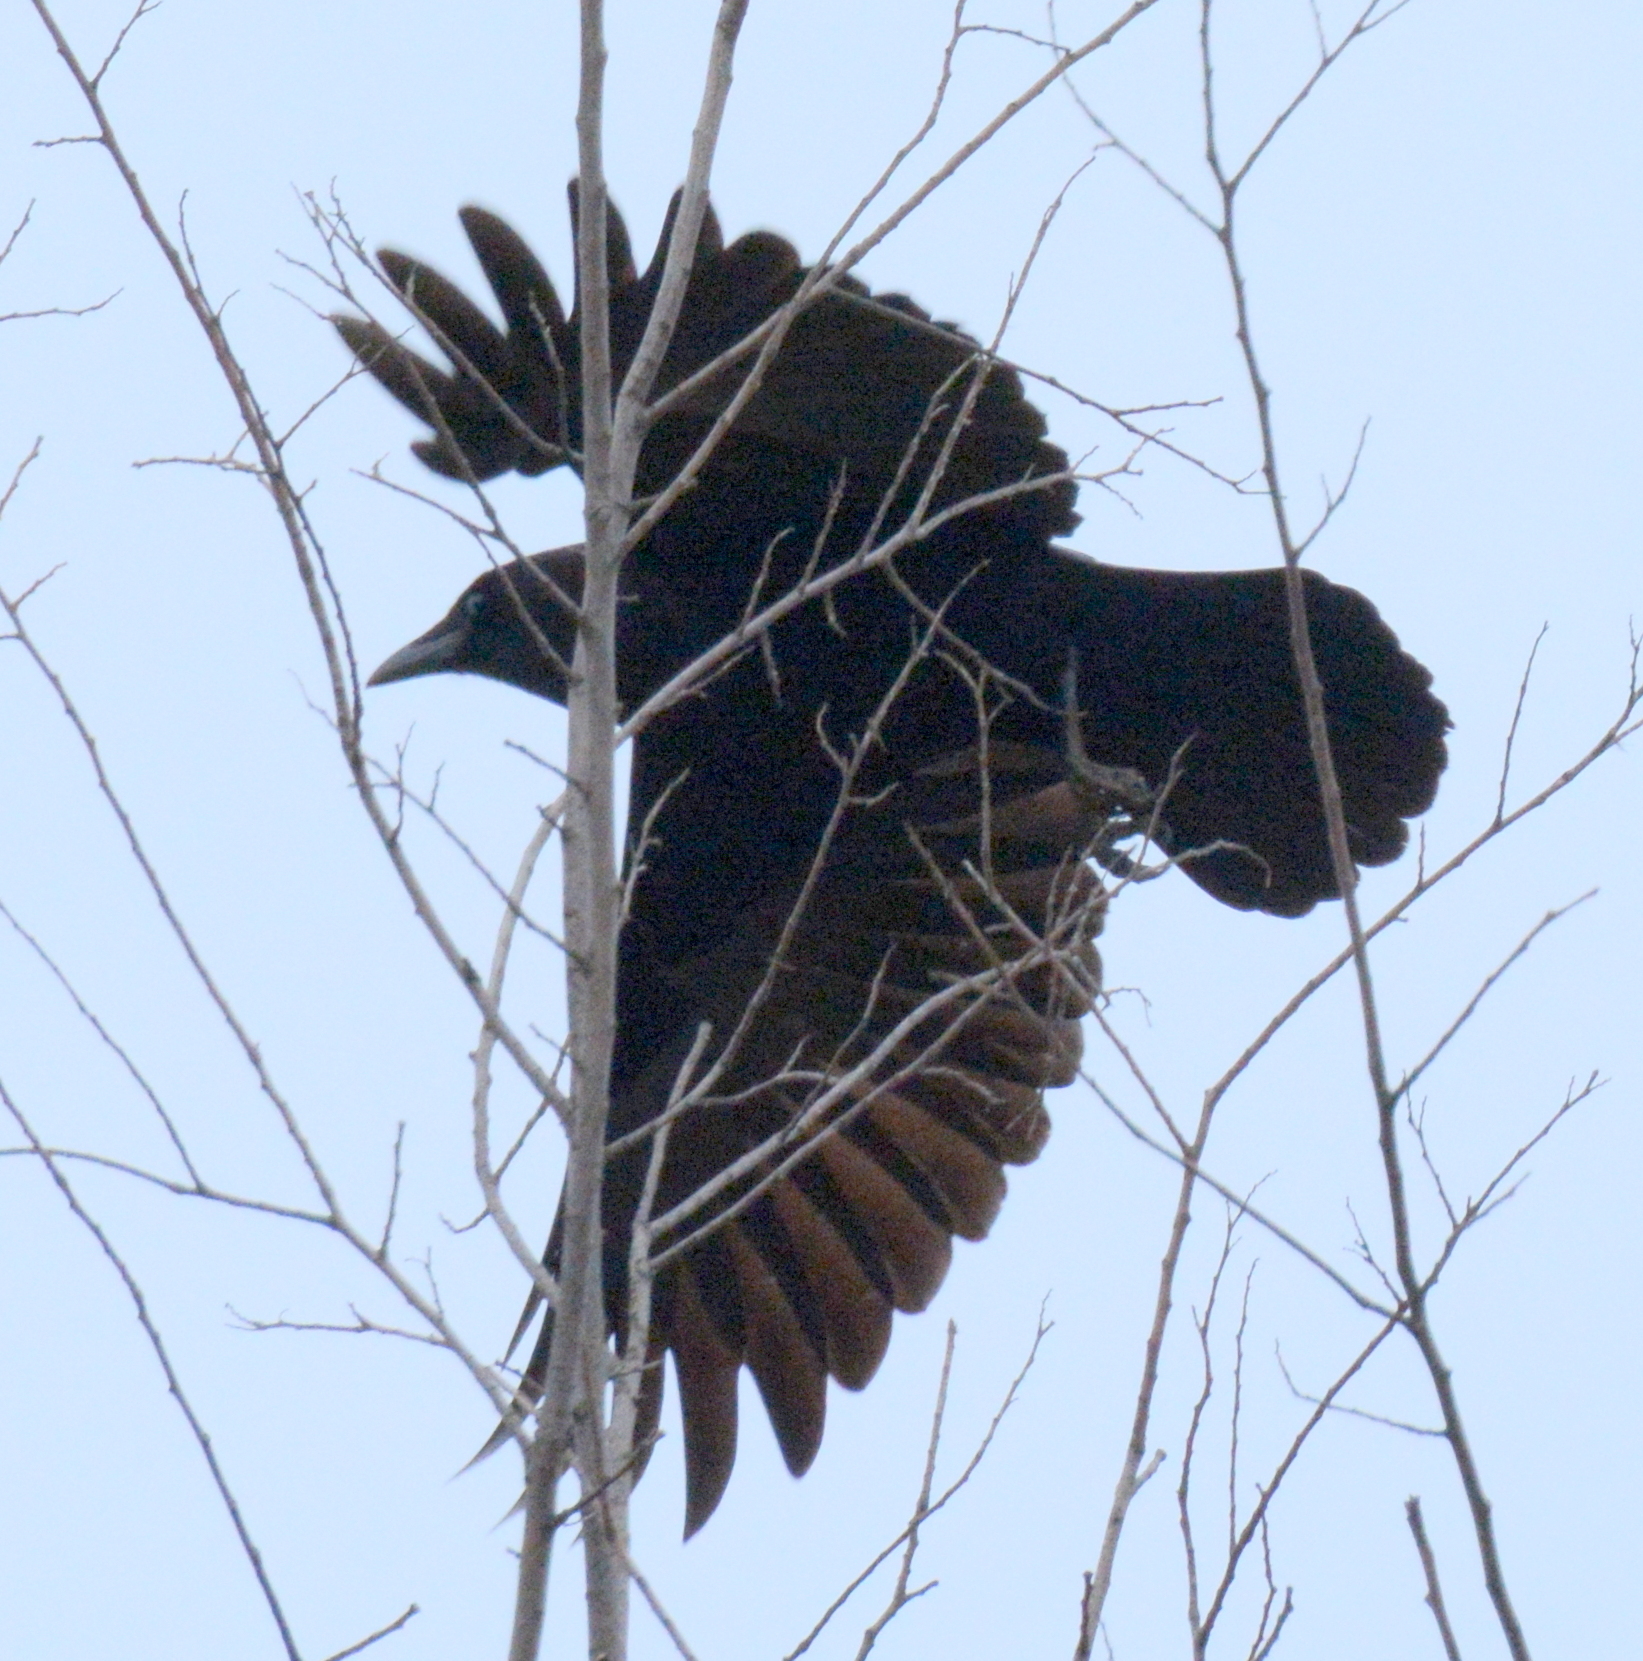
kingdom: Animalia
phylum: Chordata
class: Aves
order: Passeriformes
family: Icteridae
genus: Quiscalus
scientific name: Quiscalus quiscula
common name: Common grackle
